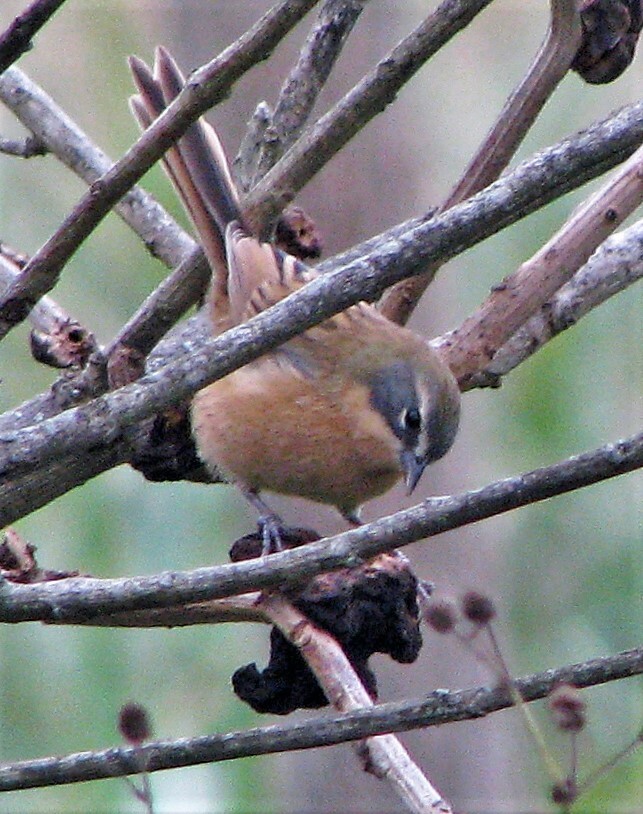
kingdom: Animalia
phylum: Chordata
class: Aves
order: Passeriformes
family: Thraupidae
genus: Donacospiza
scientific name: Donacospiza albifrons
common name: Long-tailed reed finch
